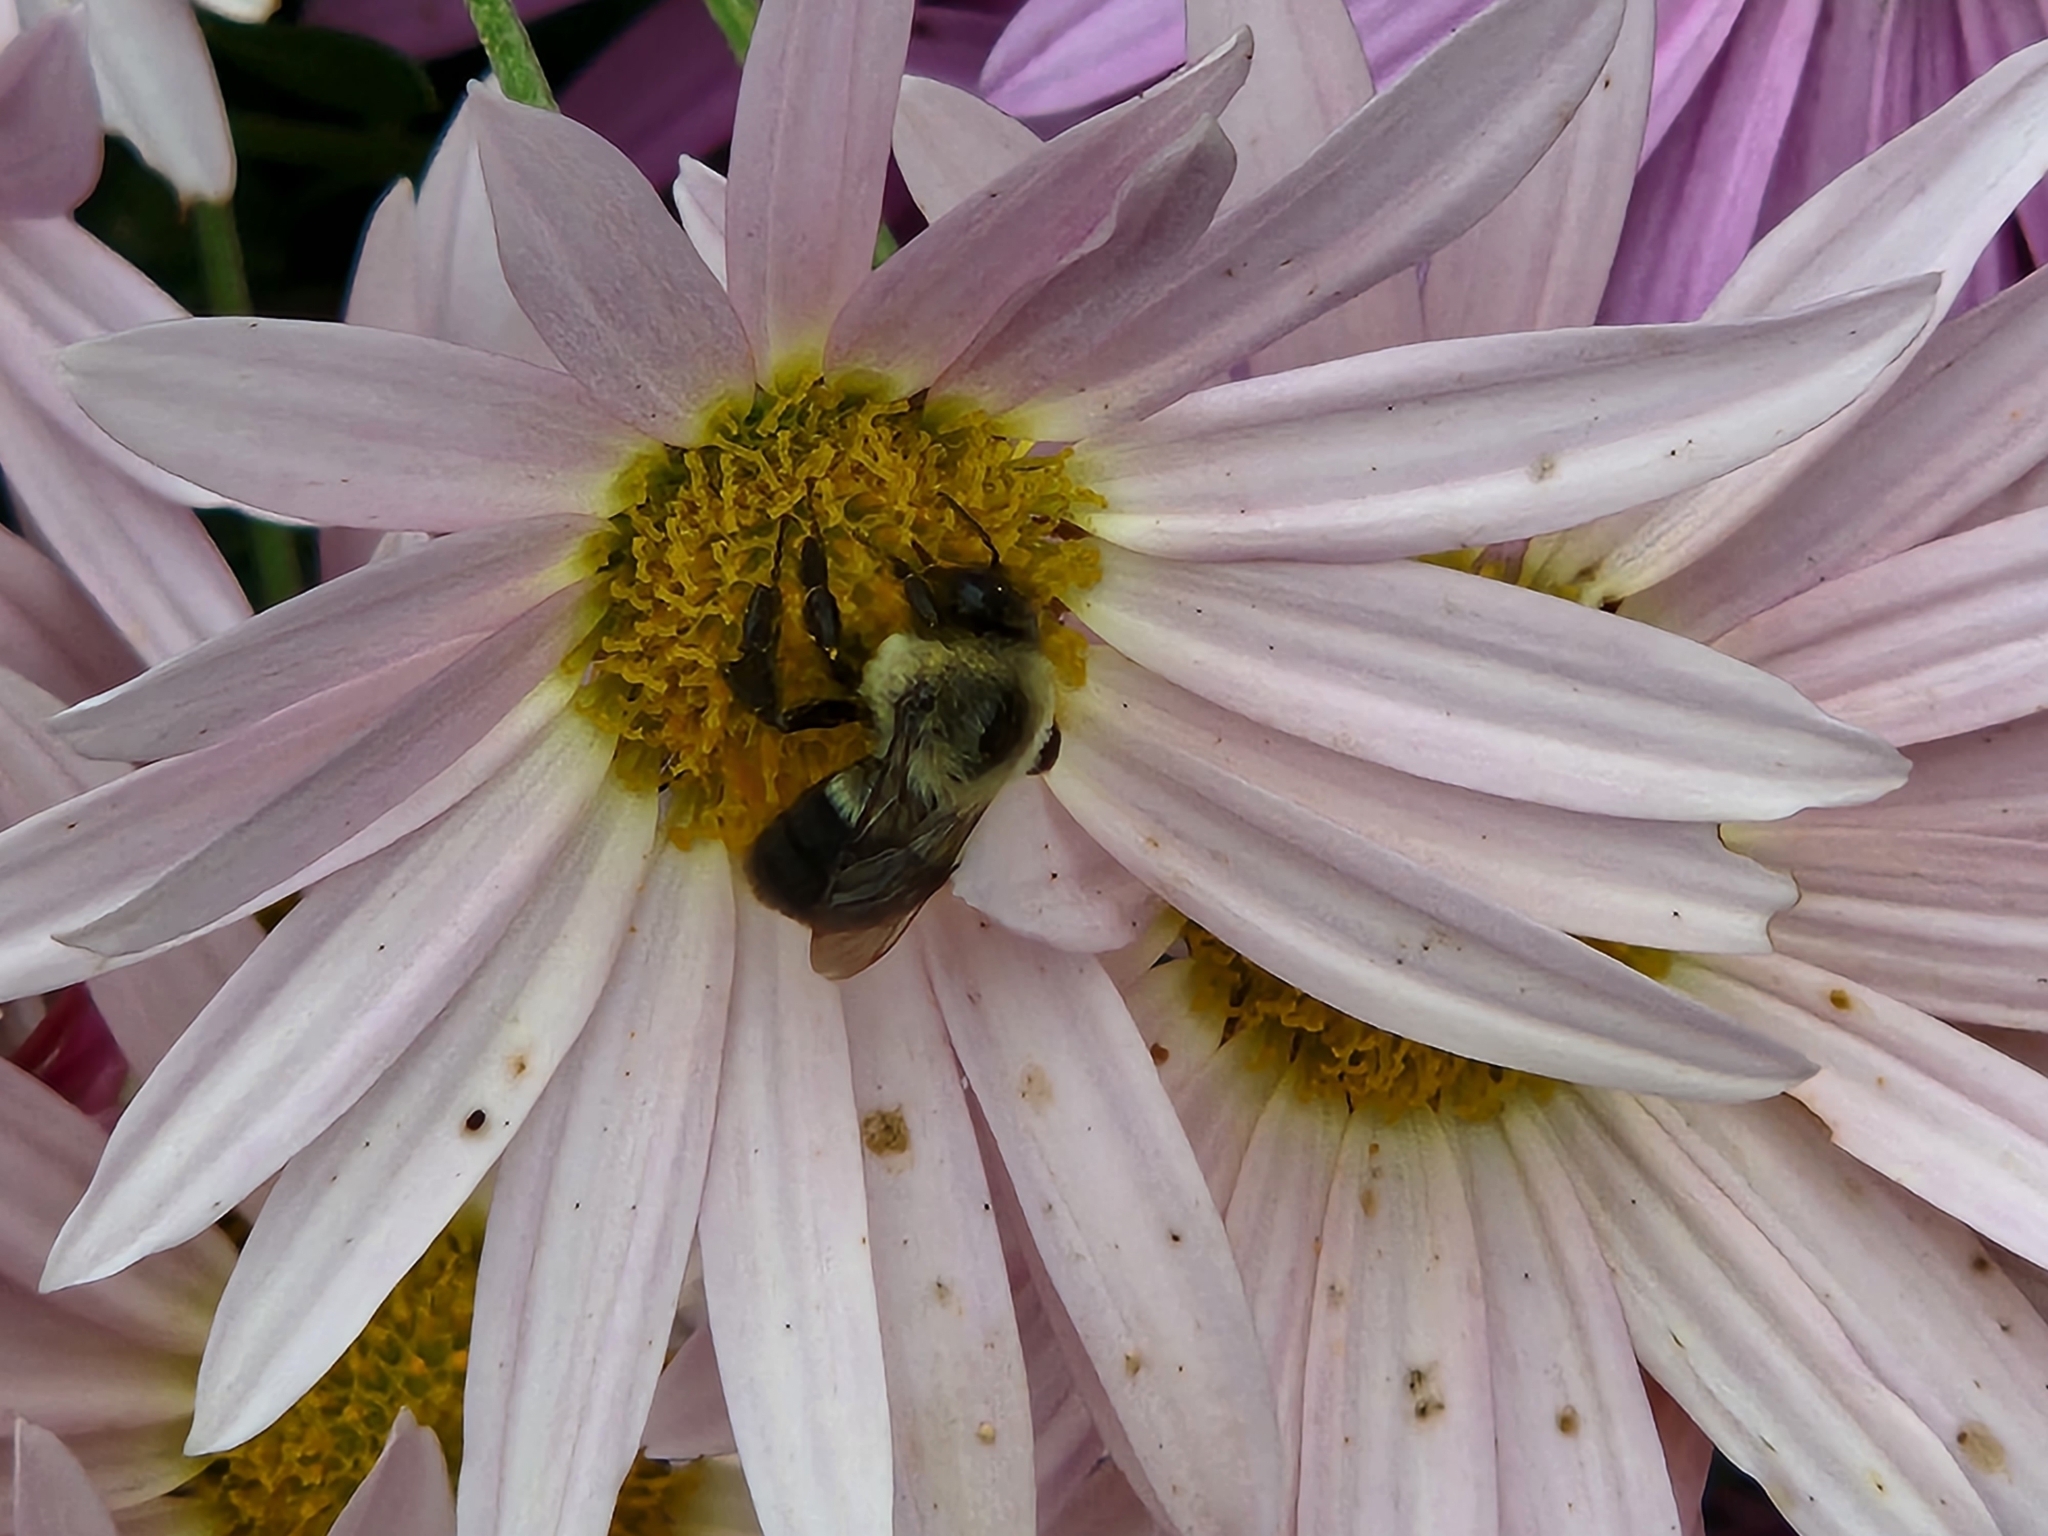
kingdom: Animalia
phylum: Arthropoda
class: Insecta
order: Hymenoptera
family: Apidae
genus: Bombus
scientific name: Bombus impatiens
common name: Common eastern bumble bee
